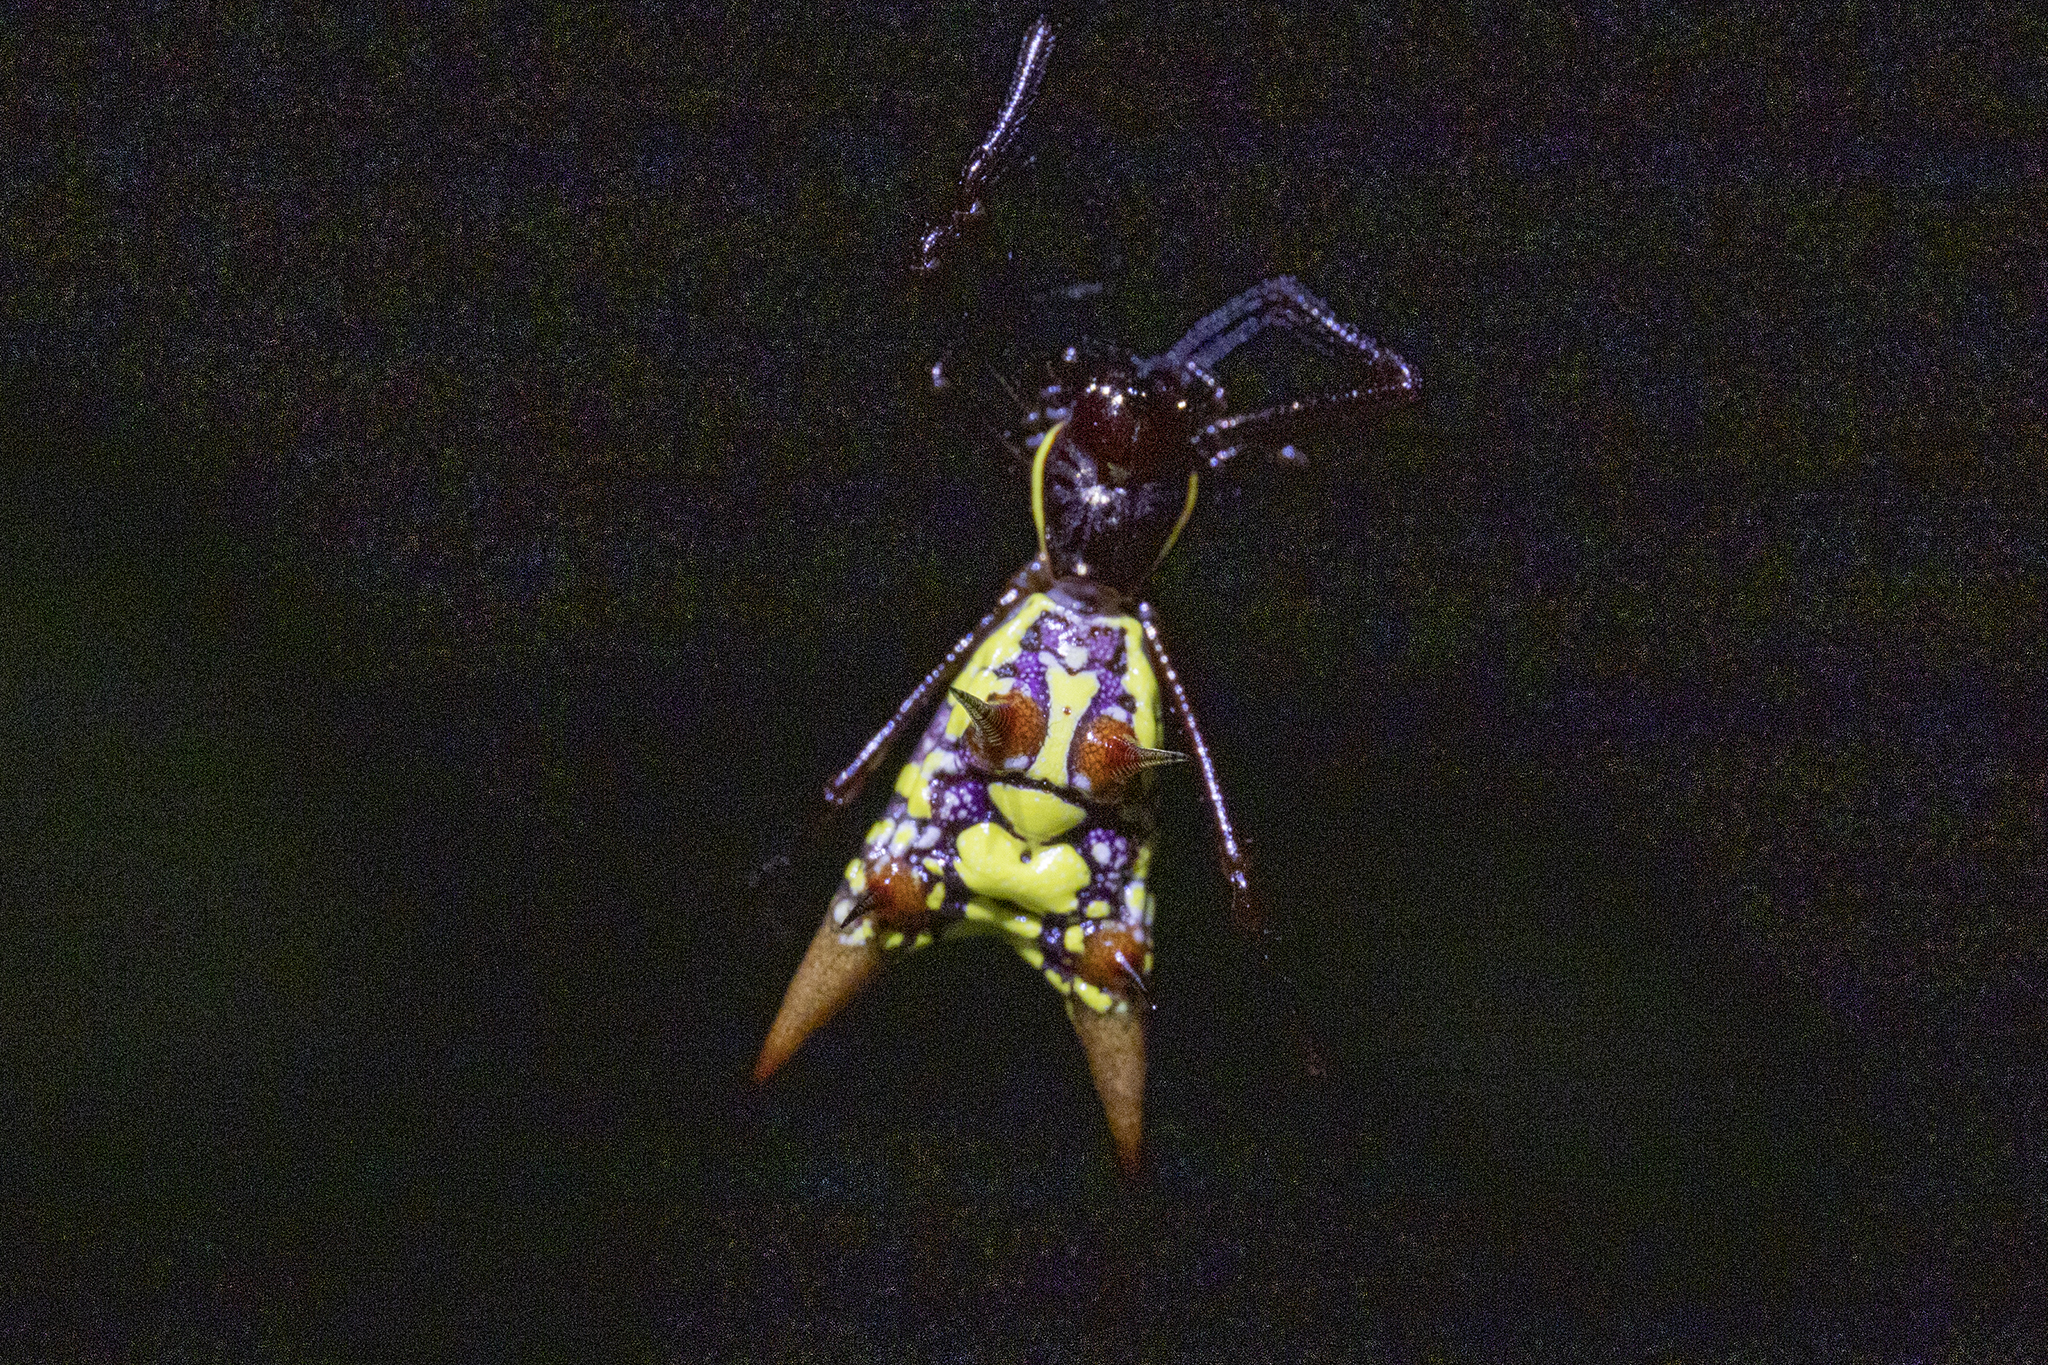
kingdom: Animalia
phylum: Arthropoda
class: Arachnida
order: Araneae
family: Araneidae
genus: Micrathena
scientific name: Micrathena sexspinosa
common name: Orb weavers
